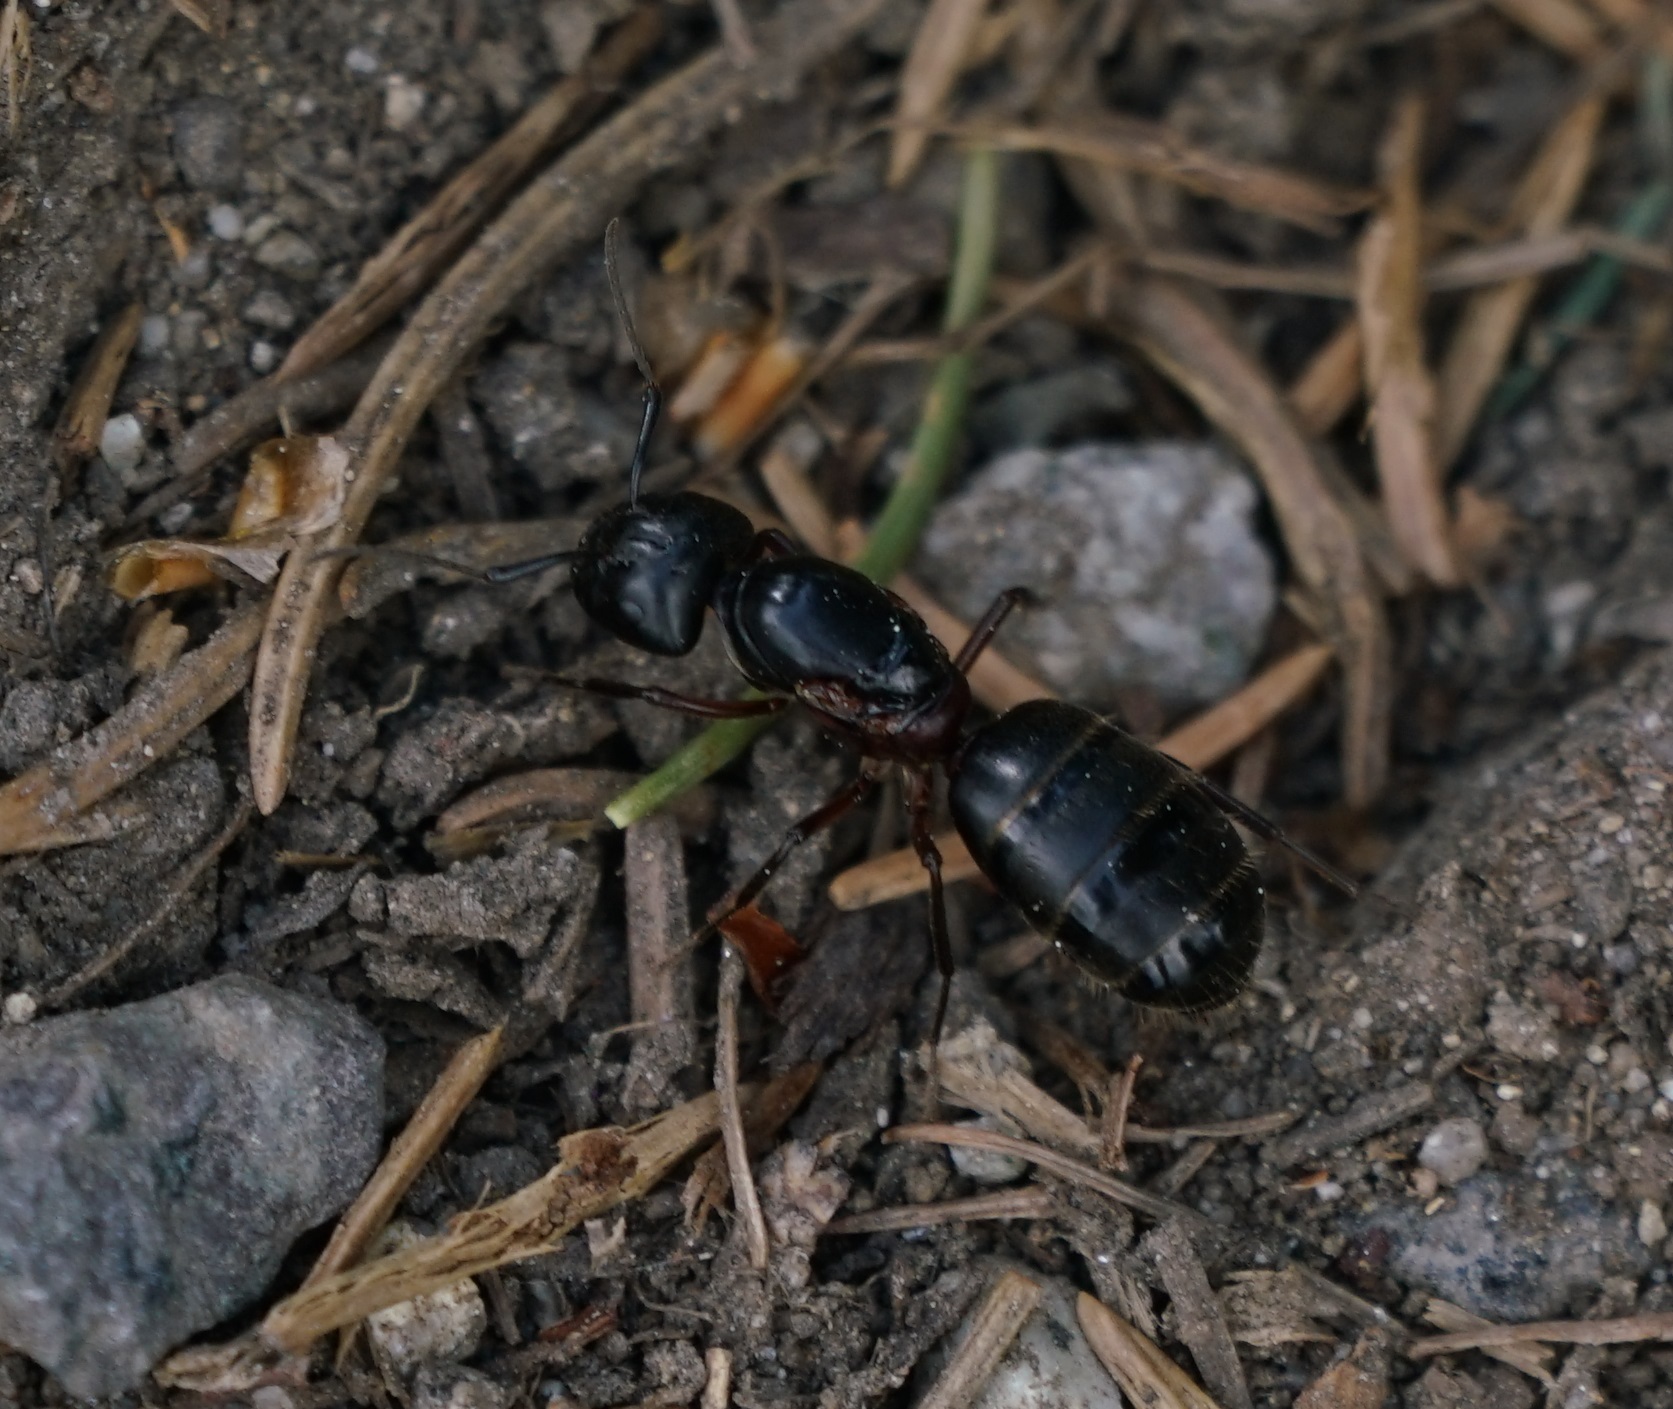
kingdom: Animalia
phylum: Arthropoda
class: Insecta
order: Hymenoptera
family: Formicidae
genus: Camponotus
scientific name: Camponotus herculeanus
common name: Hercules ant
